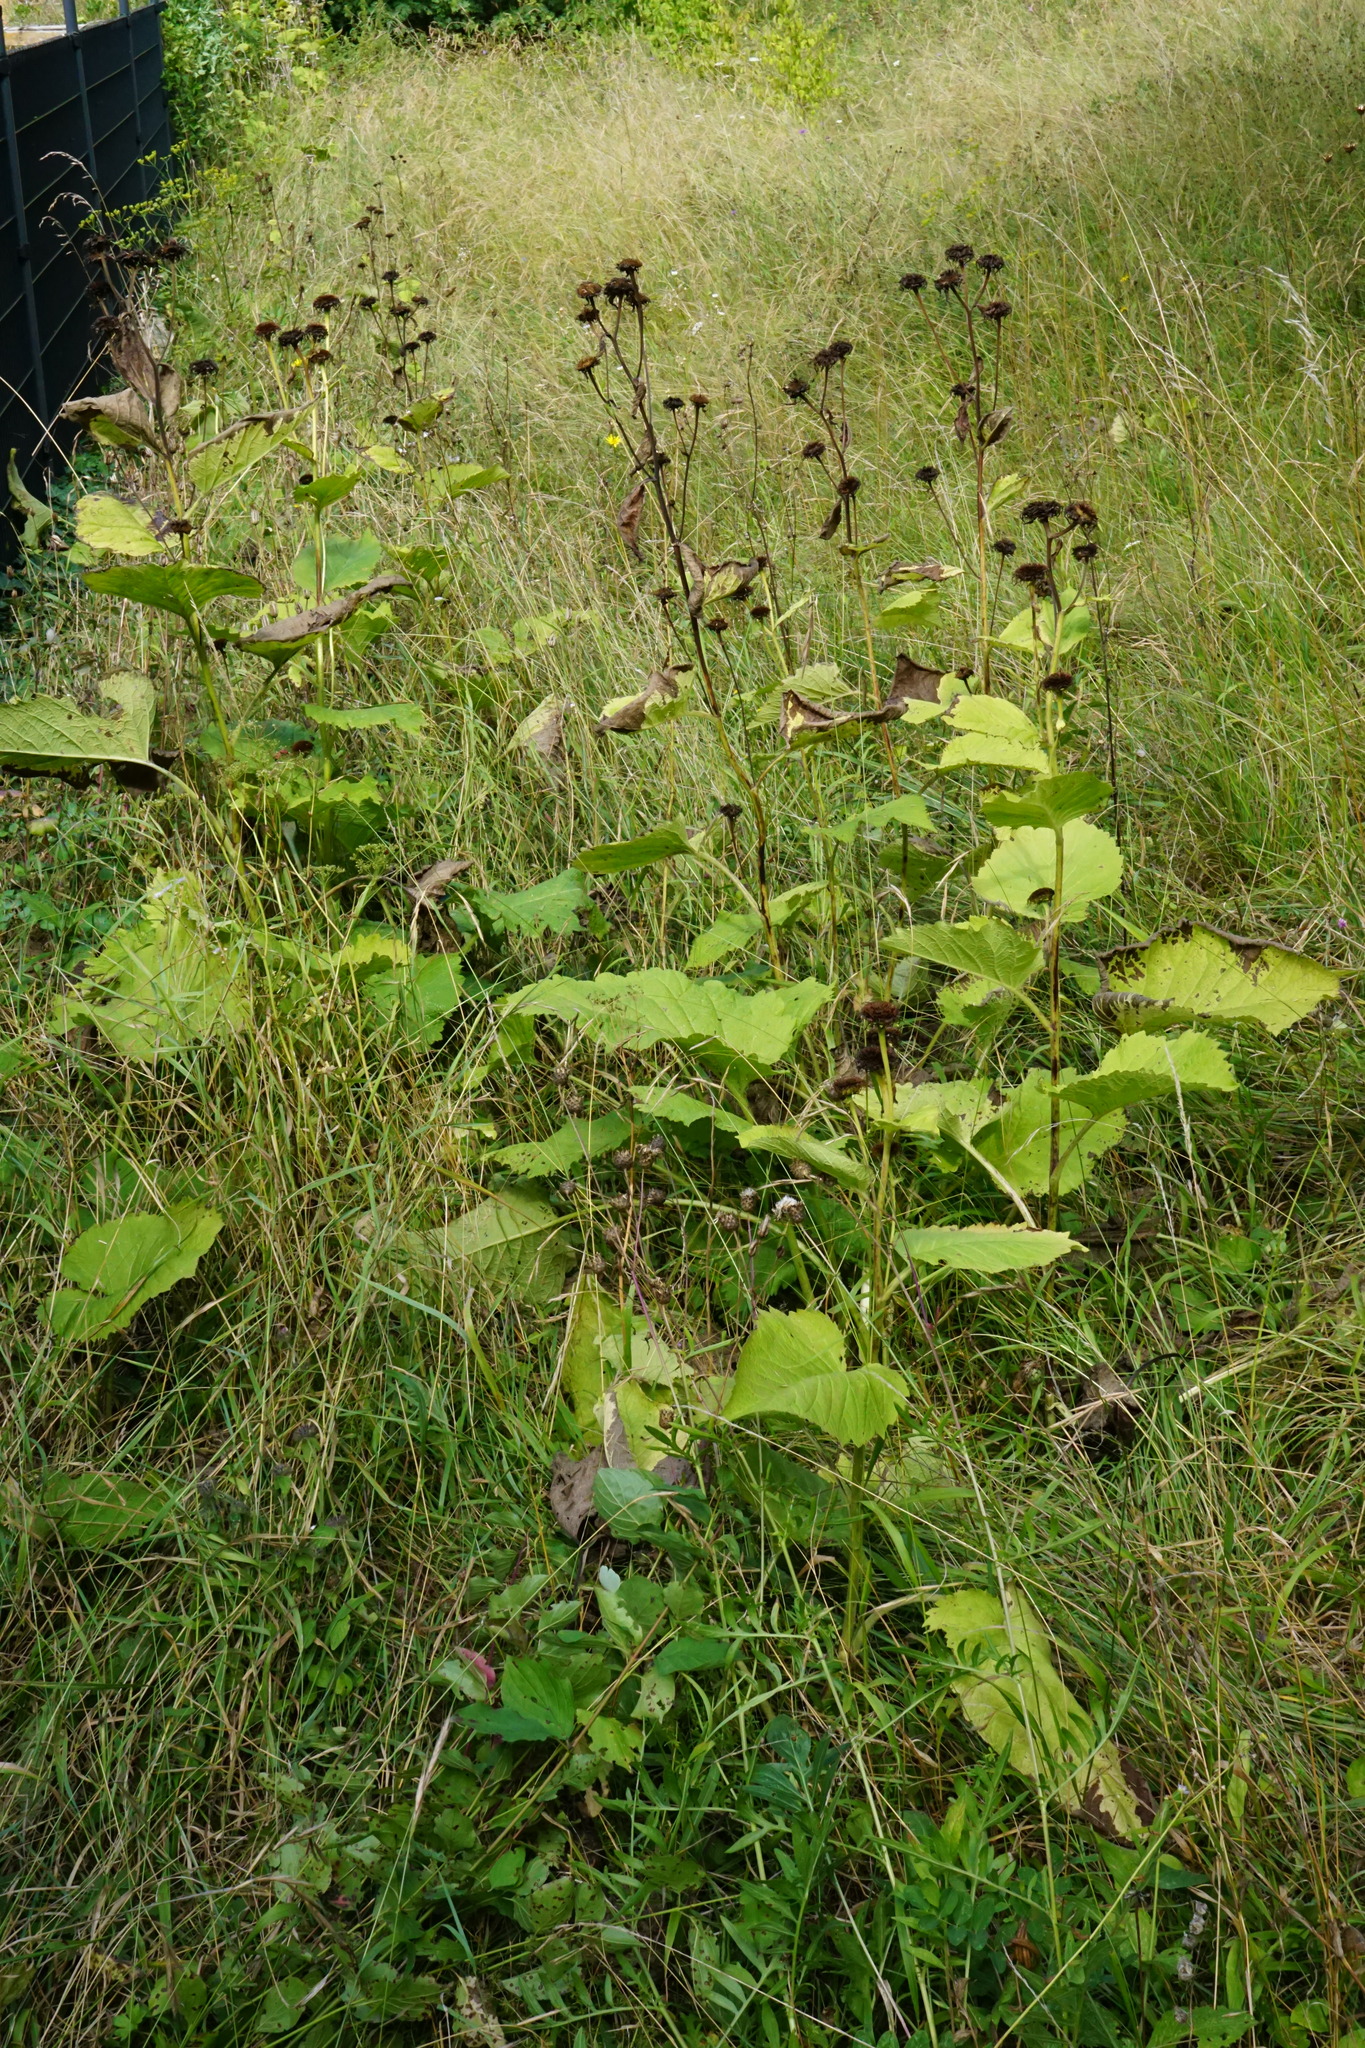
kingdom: Plantae
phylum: Tracheophyta
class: Magnoliopsida
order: Asterales
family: Asteraceae
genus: Telekia
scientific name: Telekia speciosa
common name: Yellow oxeye
